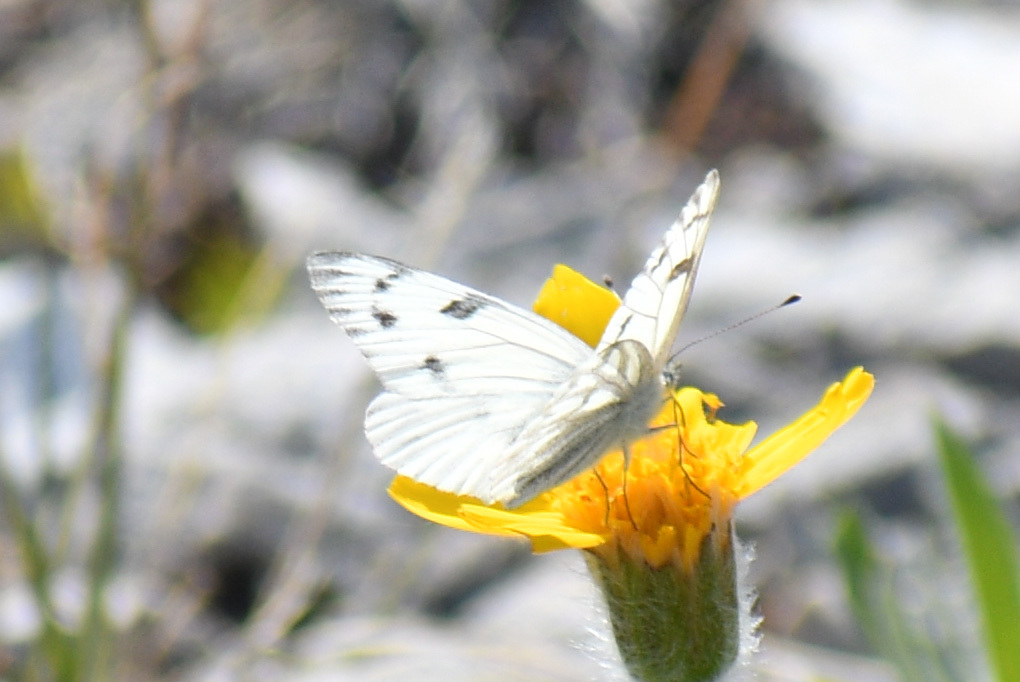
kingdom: Animalia
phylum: Arthropoda
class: Insecta
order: Lepidoptera
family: Pieridae
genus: Pontia
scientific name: Pontia occidentalis
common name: Western white
